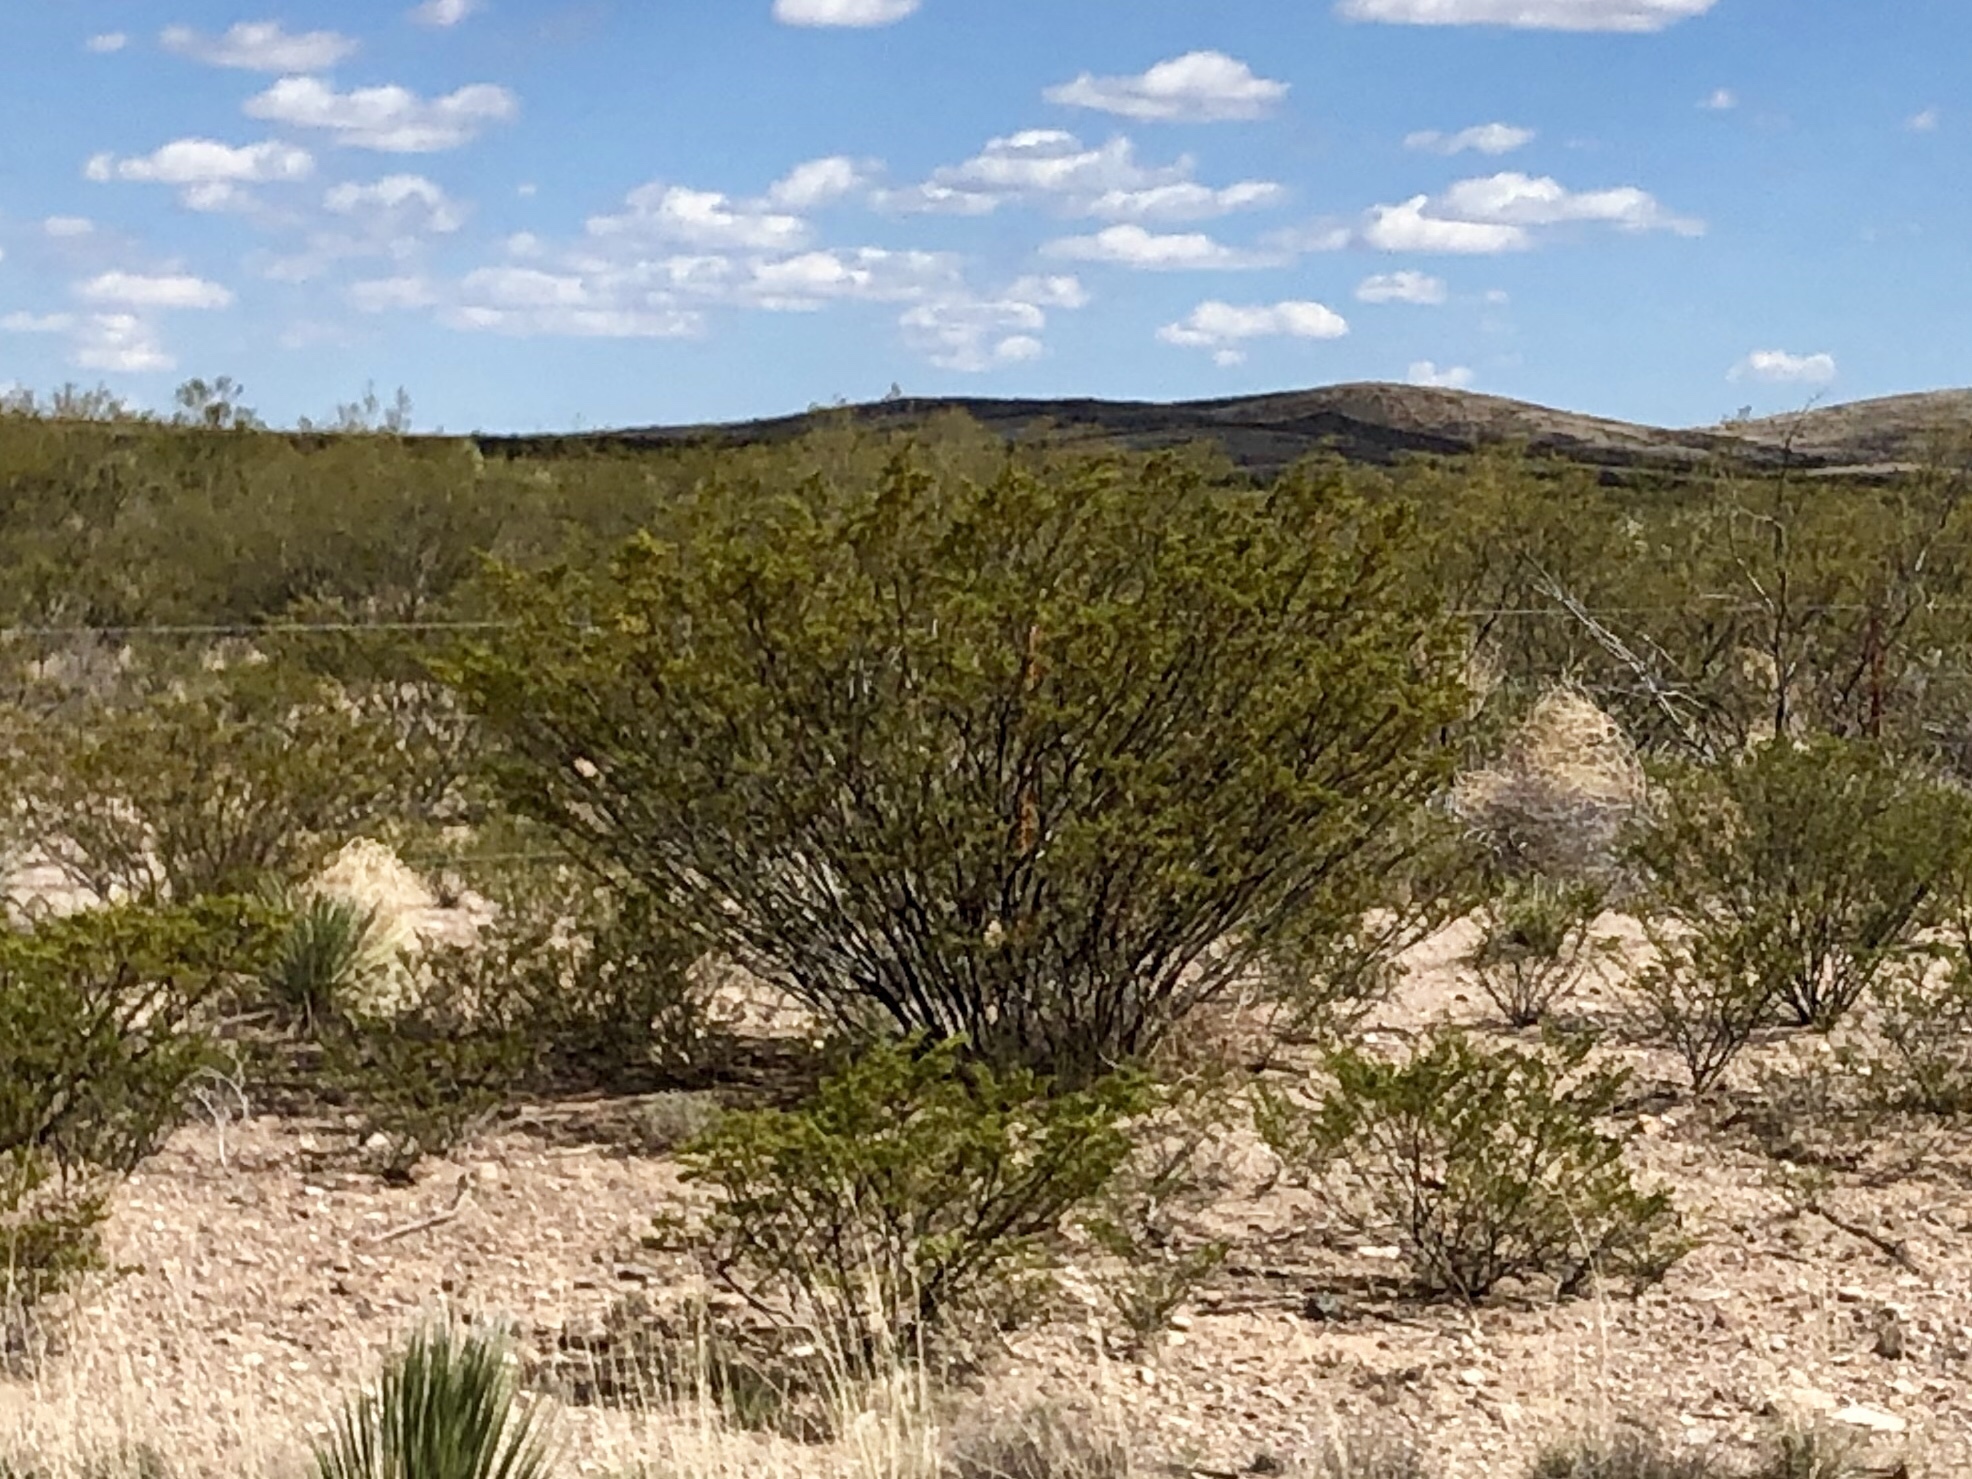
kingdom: Plantae
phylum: Tracheophyta
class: Magnoliopsida
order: Zygophyllales
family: Zygophyllaceae
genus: Larrea
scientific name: Larrea tridentata
